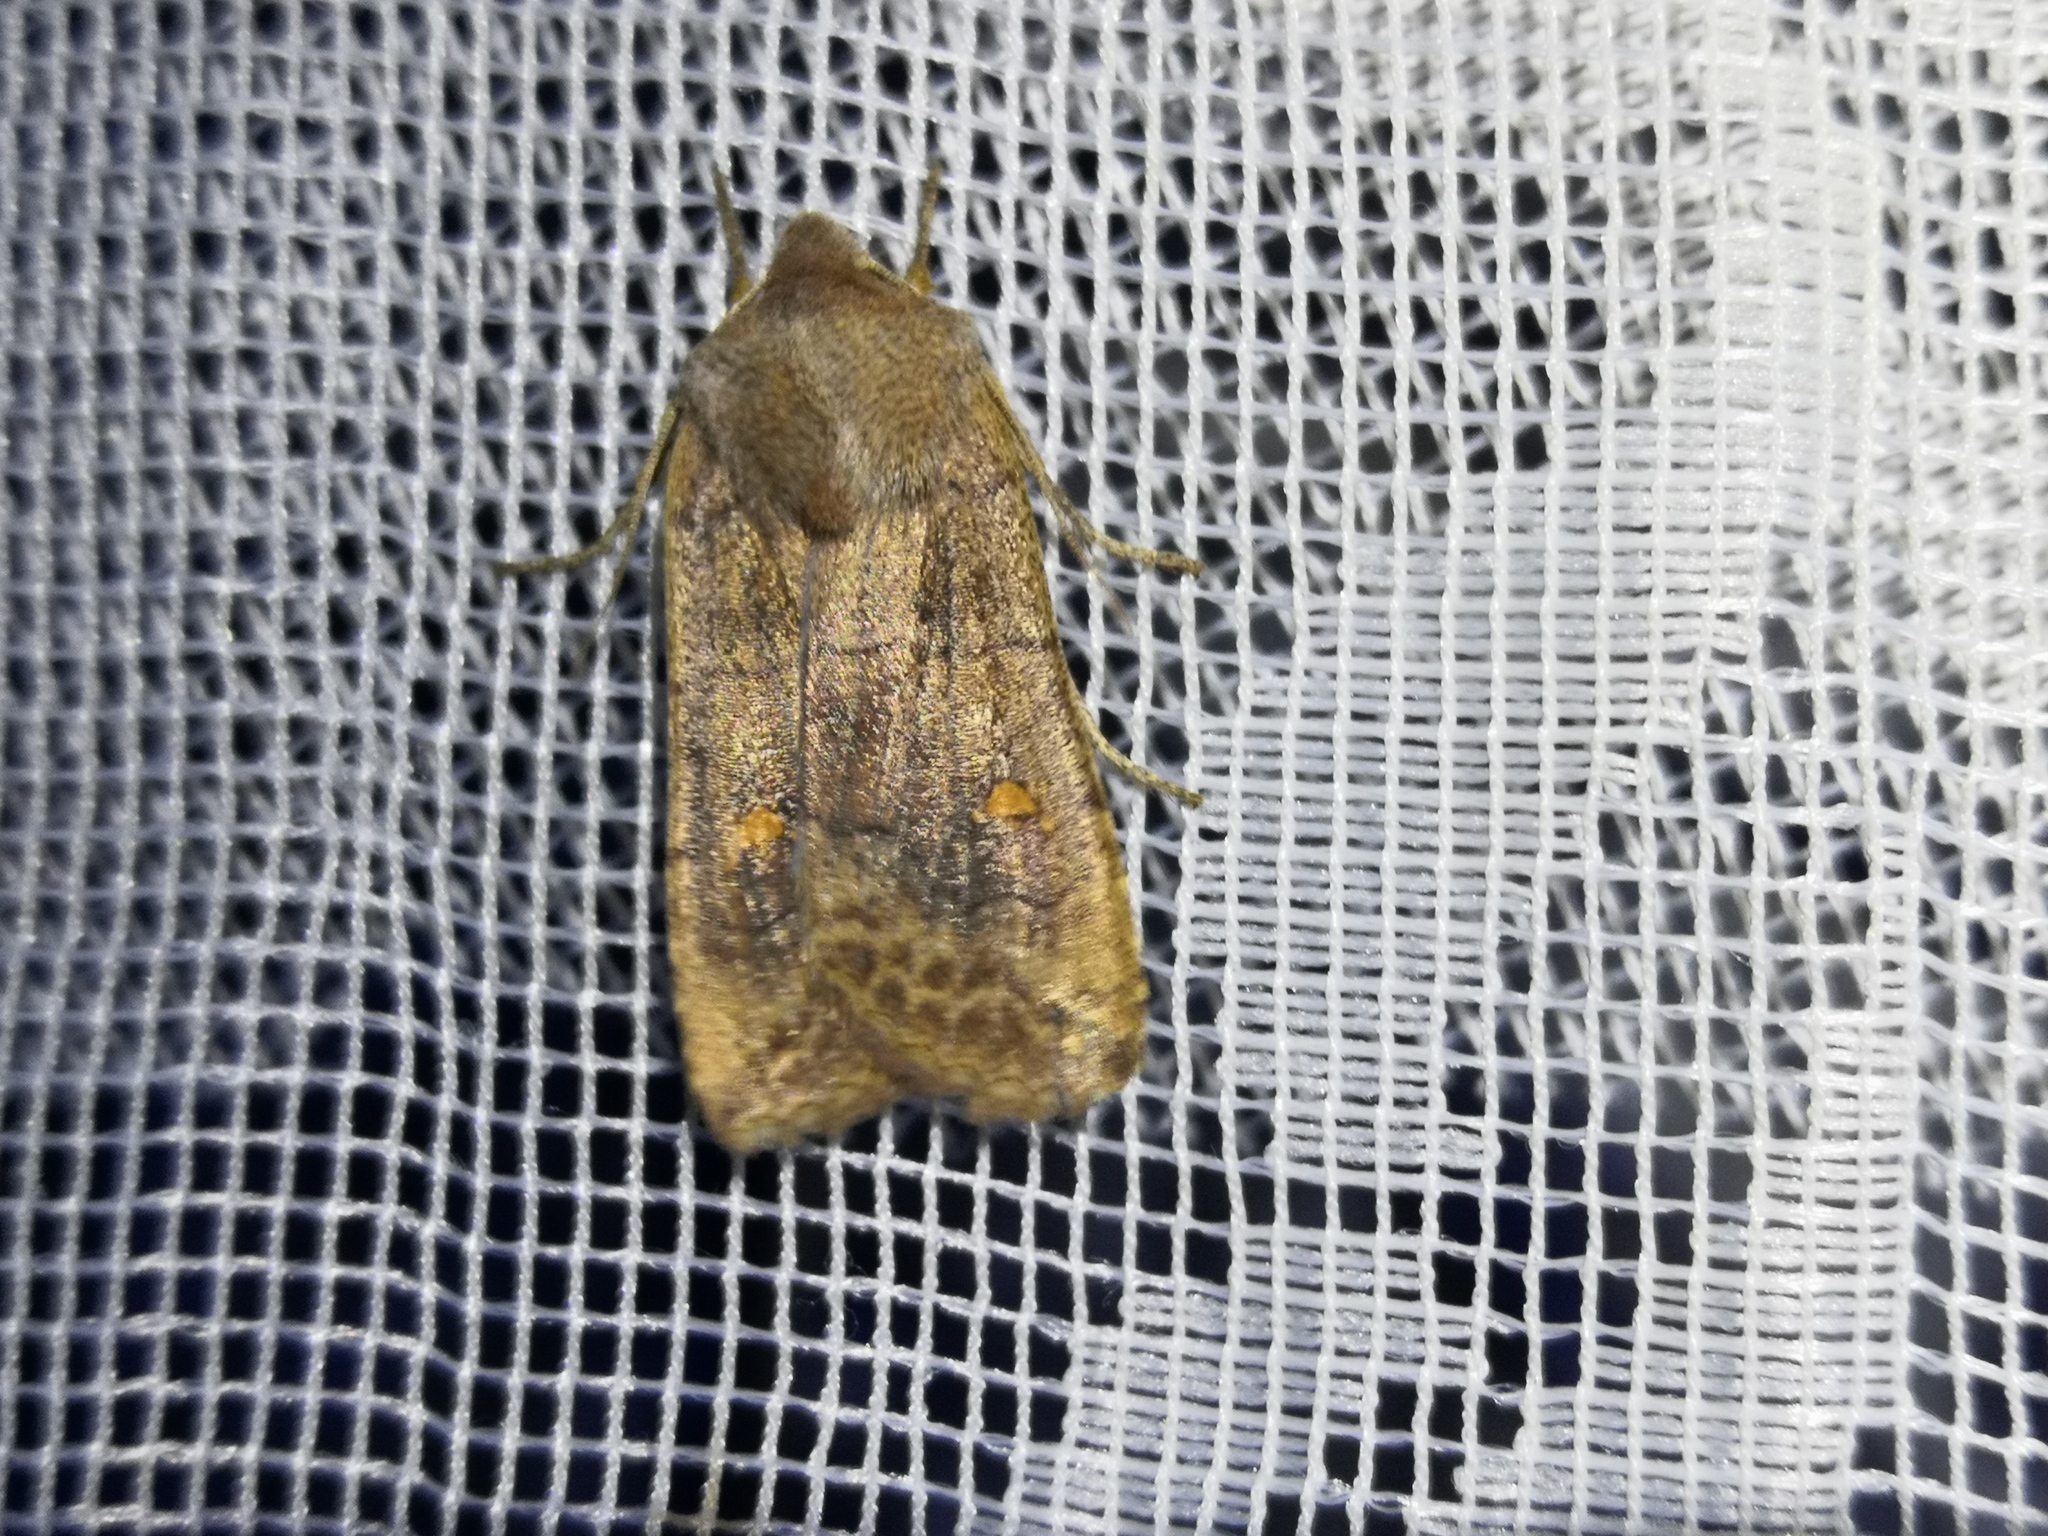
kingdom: Animalia
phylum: Arthropoda
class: Insecta
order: Lepidoptera
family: Noctuidae
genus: Eupsilia
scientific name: Eupsilia transversa
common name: Satellite
